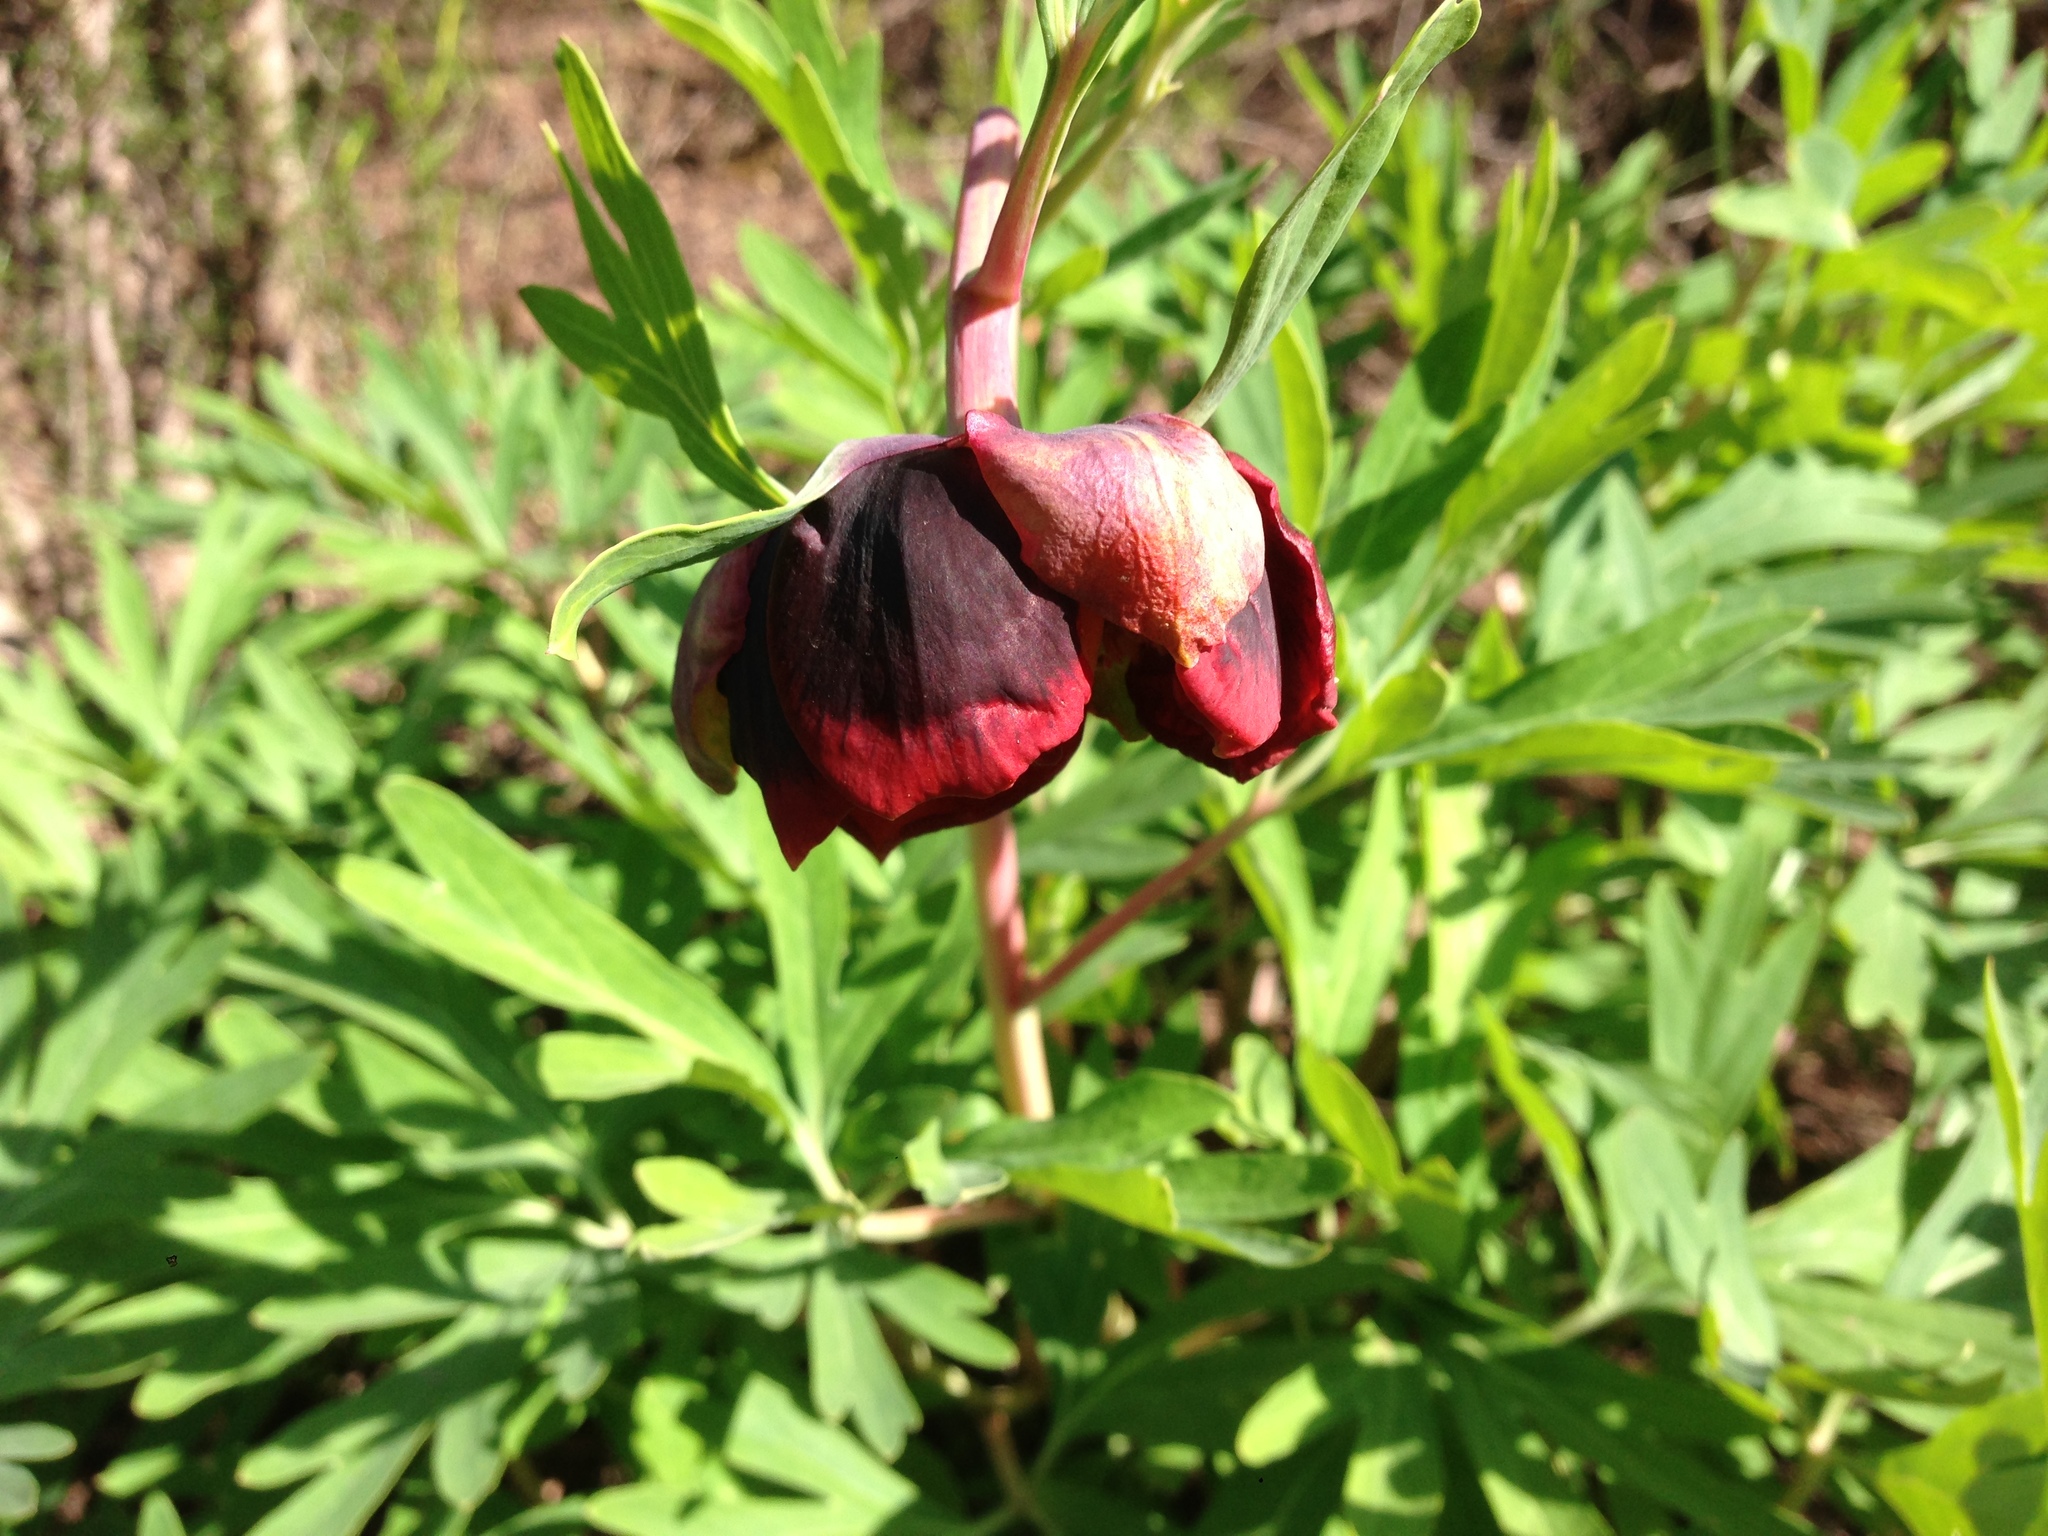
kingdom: Plantae
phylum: Tracheophyta
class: Magnoliopsida
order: Saxifragales
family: Paeoniaceae
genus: Paeonia
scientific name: Paeonia californica
